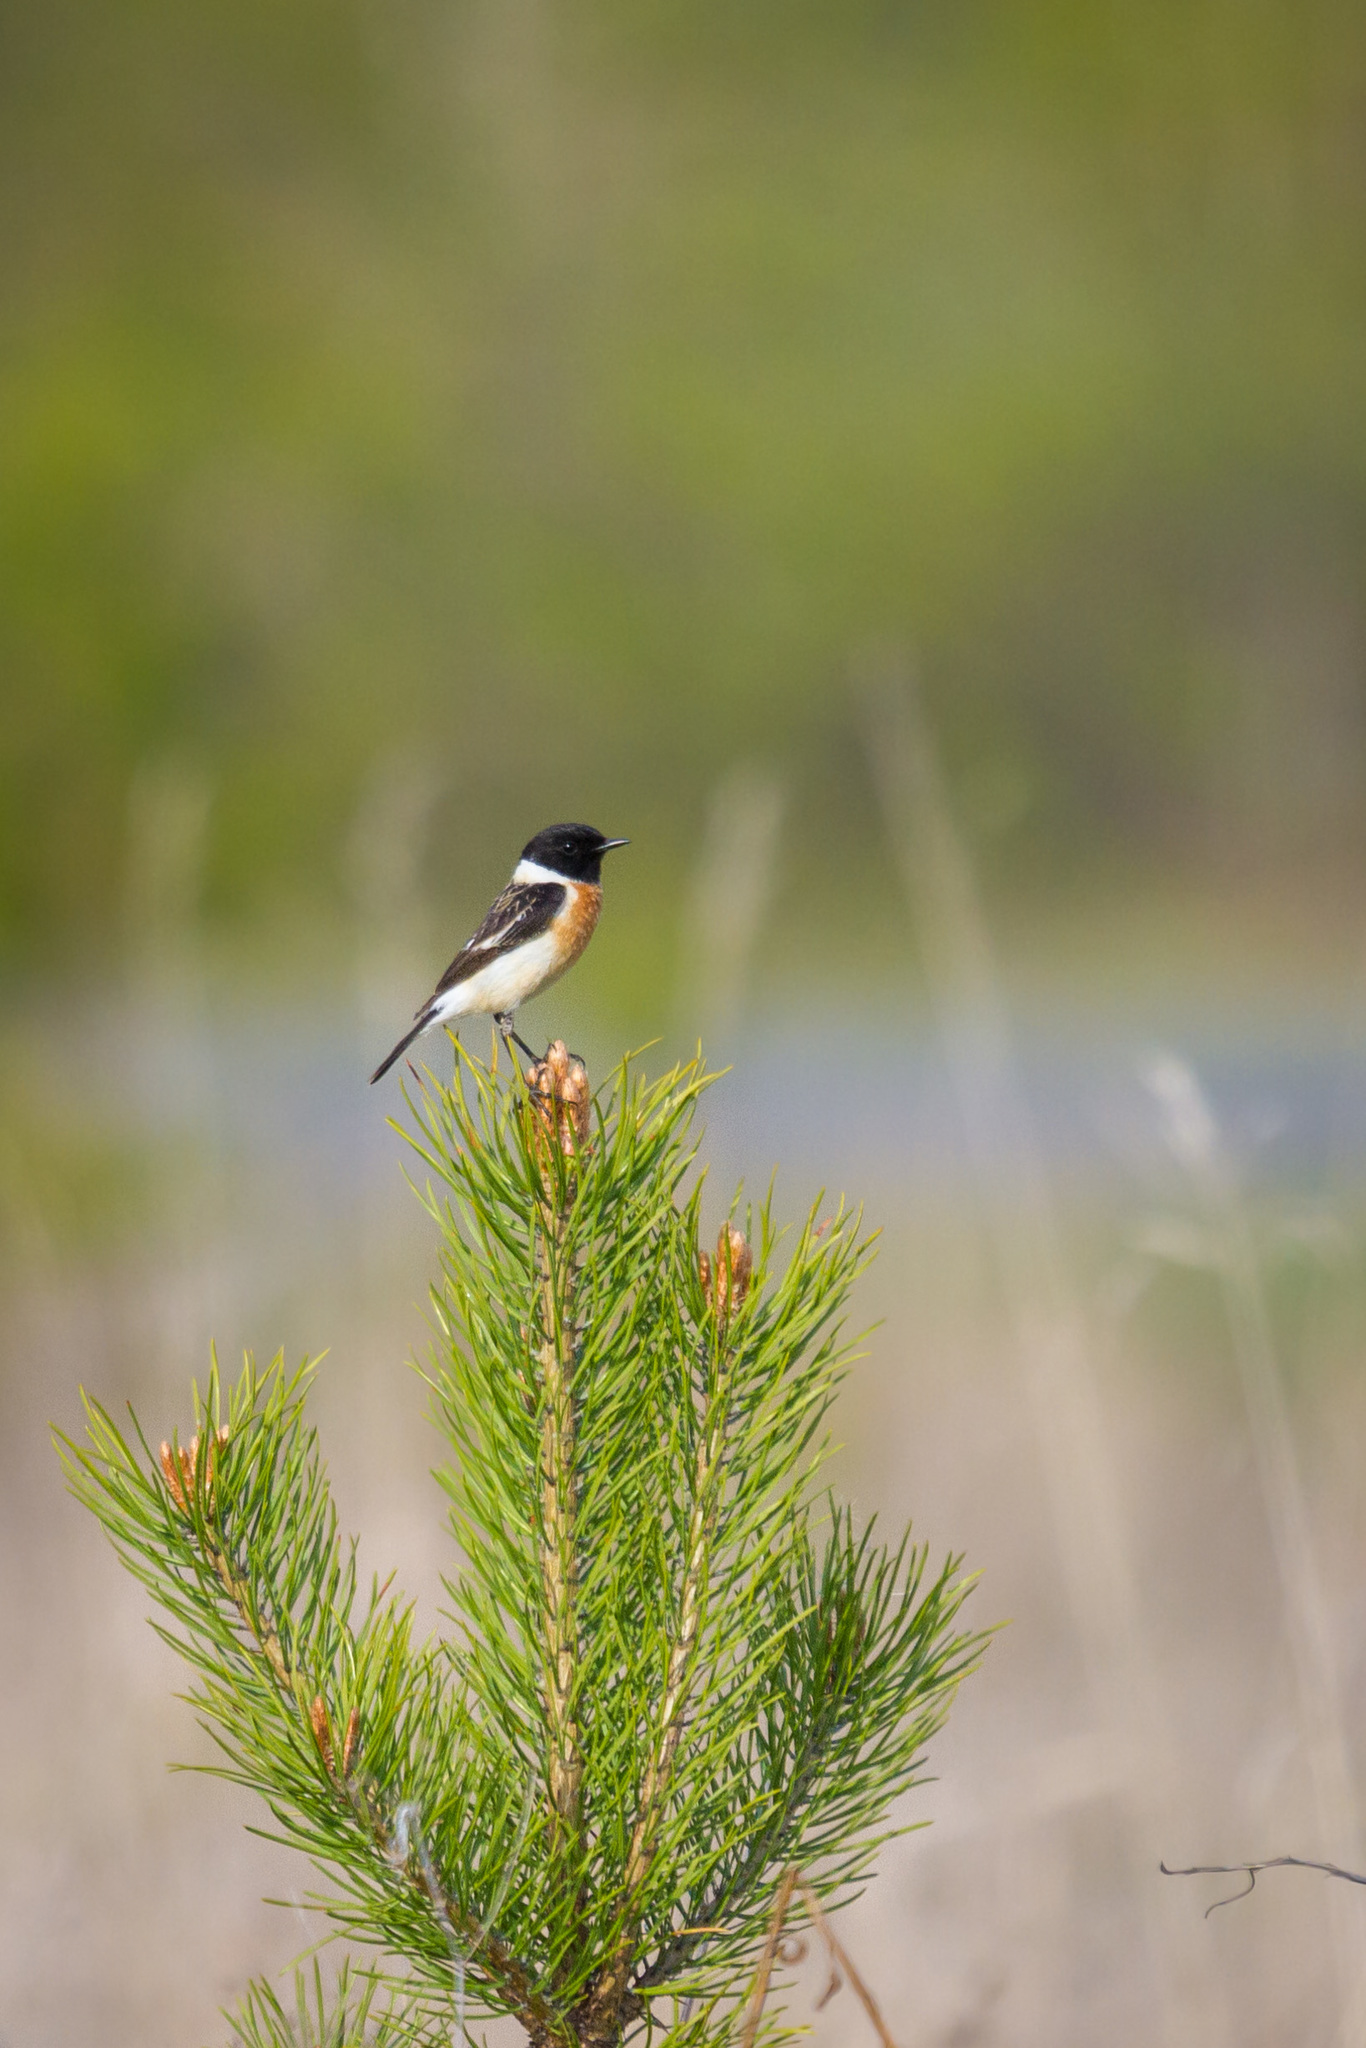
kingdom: Animalia
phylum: Chordata
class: Aves
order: Passeriformes
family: Muscicapidae
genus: Saxicola
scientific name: Saxicola maurus
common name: Siberian stonechat
